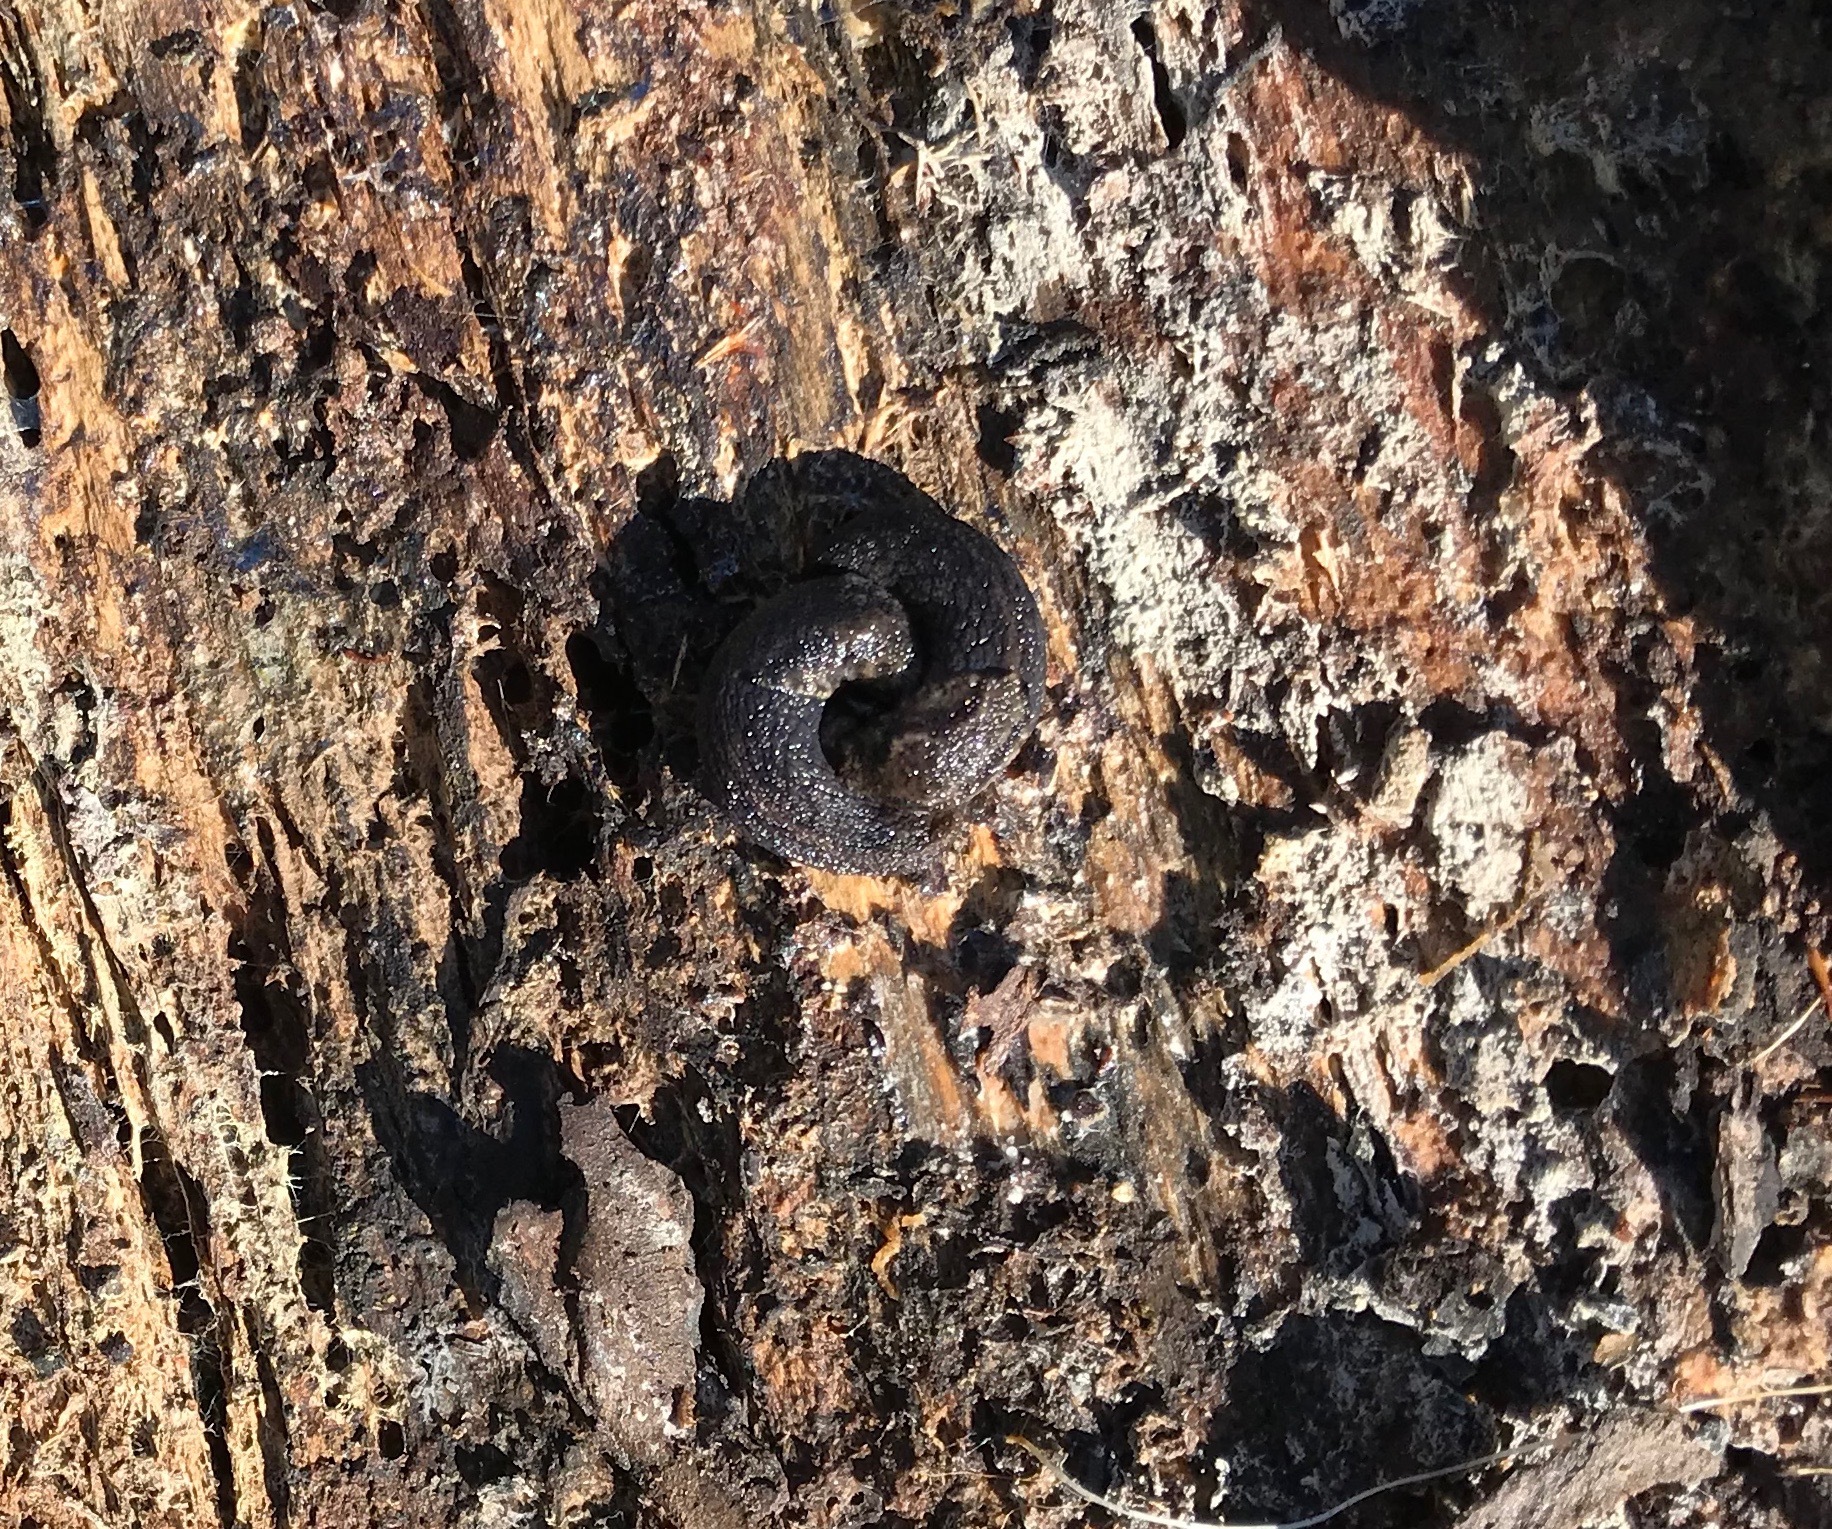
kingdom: Animalia
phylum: Mollusca
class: Gastropoda
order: Stylommatophora
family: Ariolimacidae
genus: Prophysaon
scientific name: Prophysaon andersonii
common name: Reticulate taildropper
